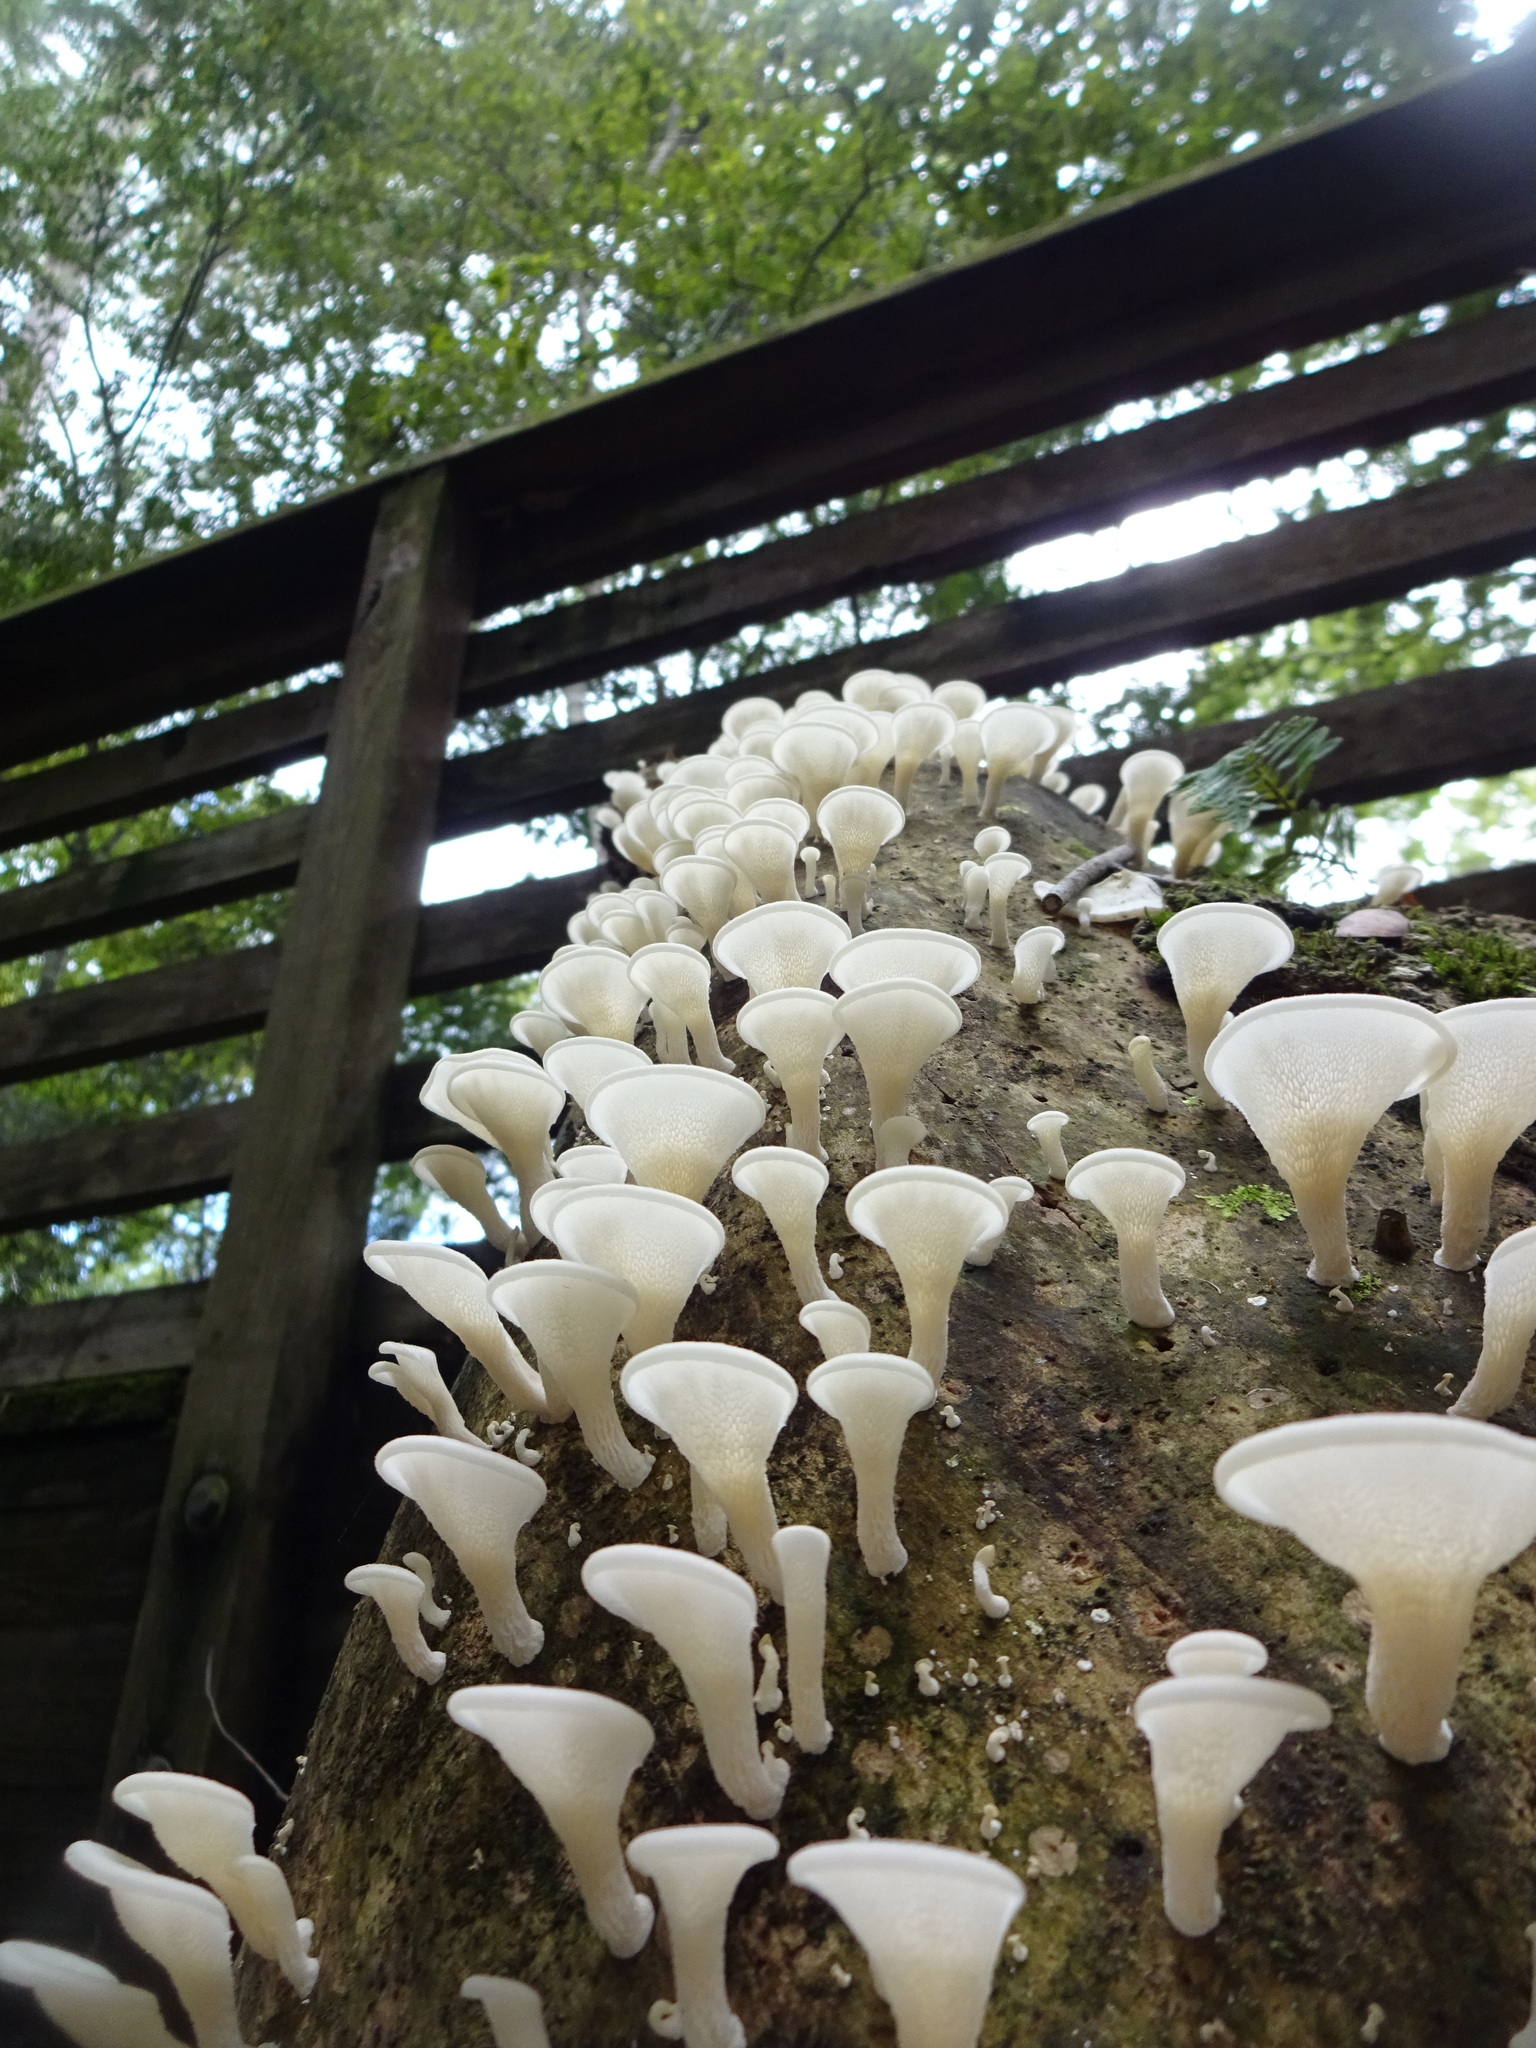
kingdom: Fungi
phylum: Basidiomycota
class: Agaricomycetes
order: Polyporales
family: Polyporaceae
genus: Favolus
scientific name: Favolus tenuiculus
